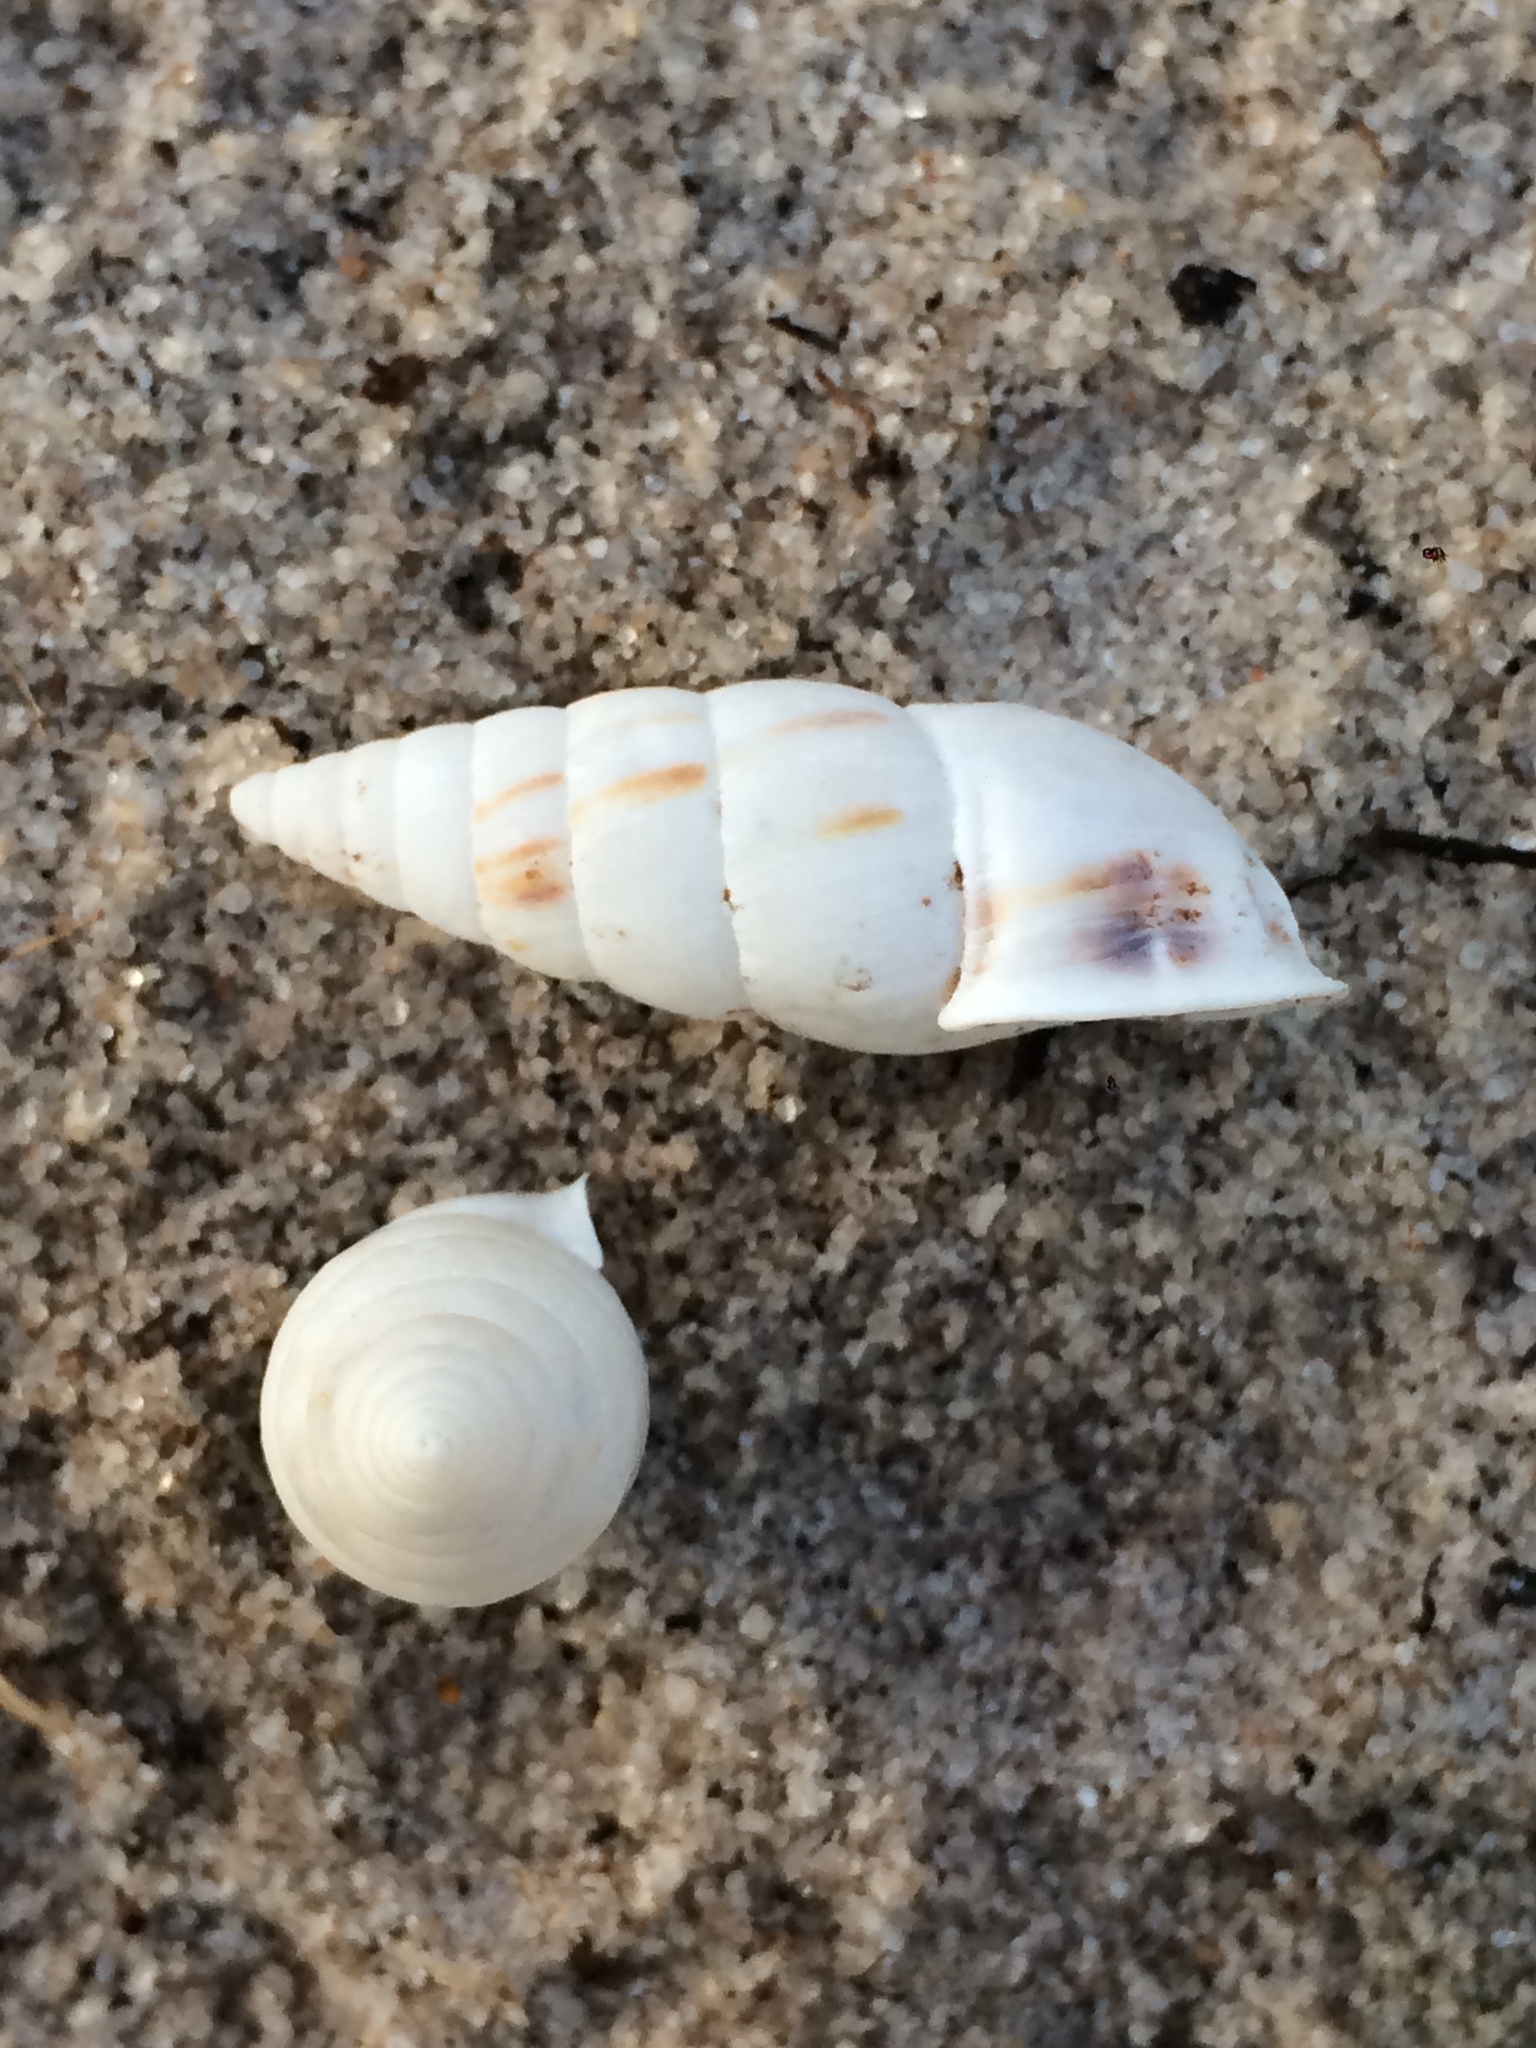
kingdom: Animalia
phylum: Mollusca
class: Gastropoda
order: Stylommatophora
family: Odontostomidae
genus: Cyclodontina
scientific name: Cyclodontina inflata
